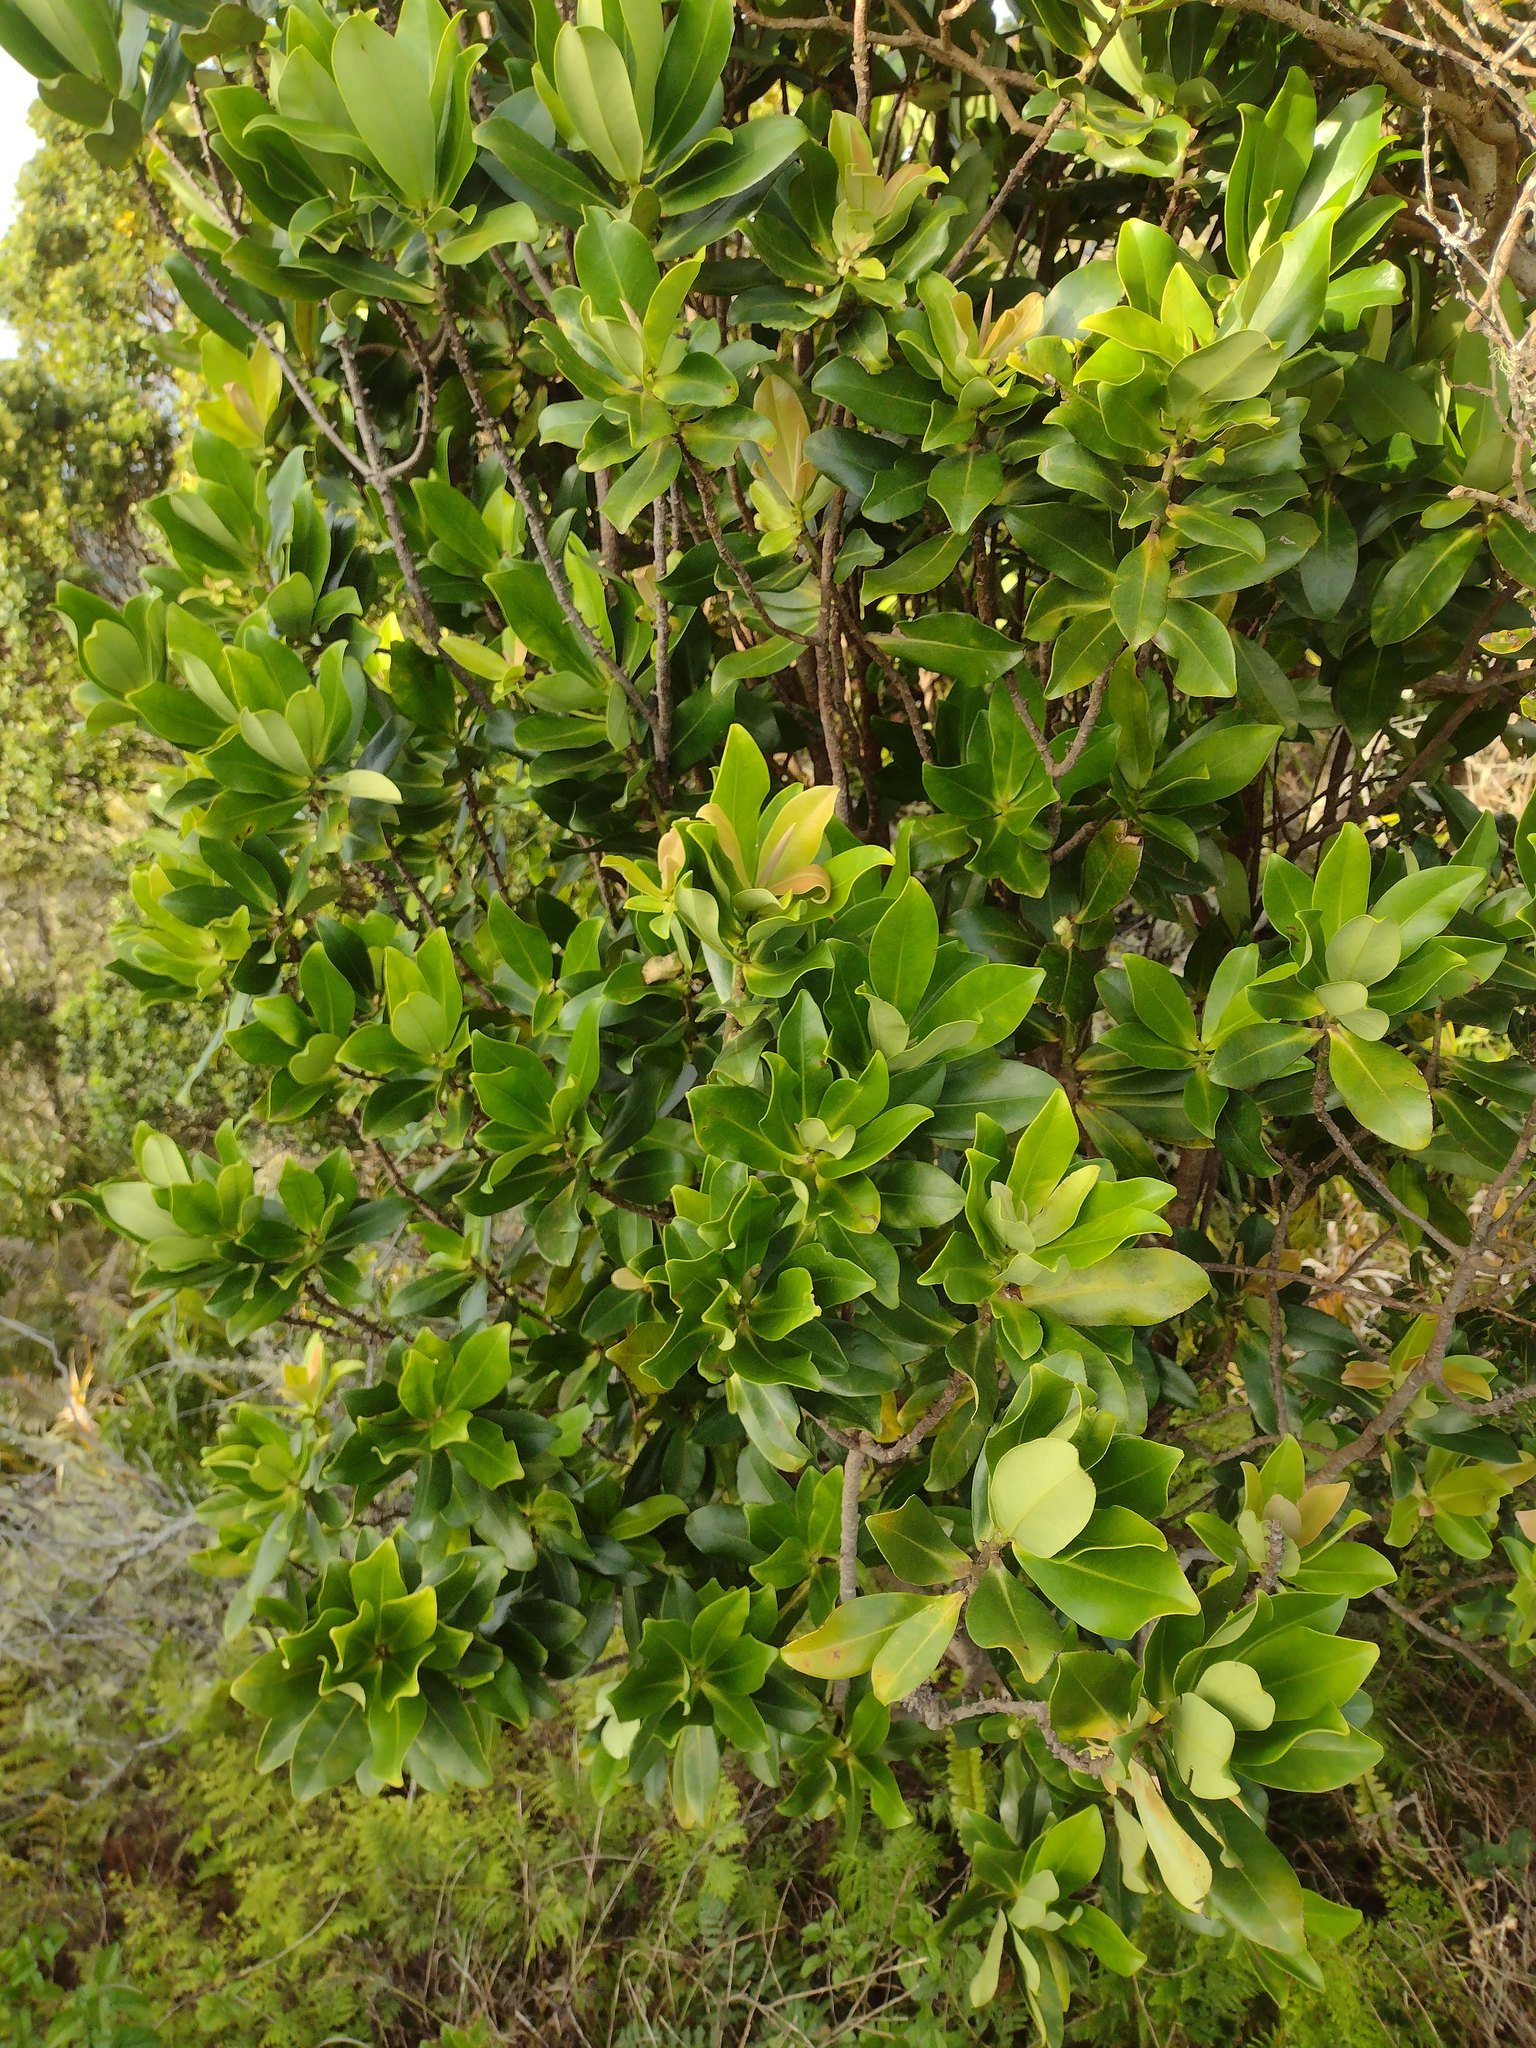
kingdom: Plantae
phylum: Tracheophyta
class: Magnoliopsida
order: Ericales
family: Primulaceae
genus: Myrsine
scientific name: Myrsine lessertiana
